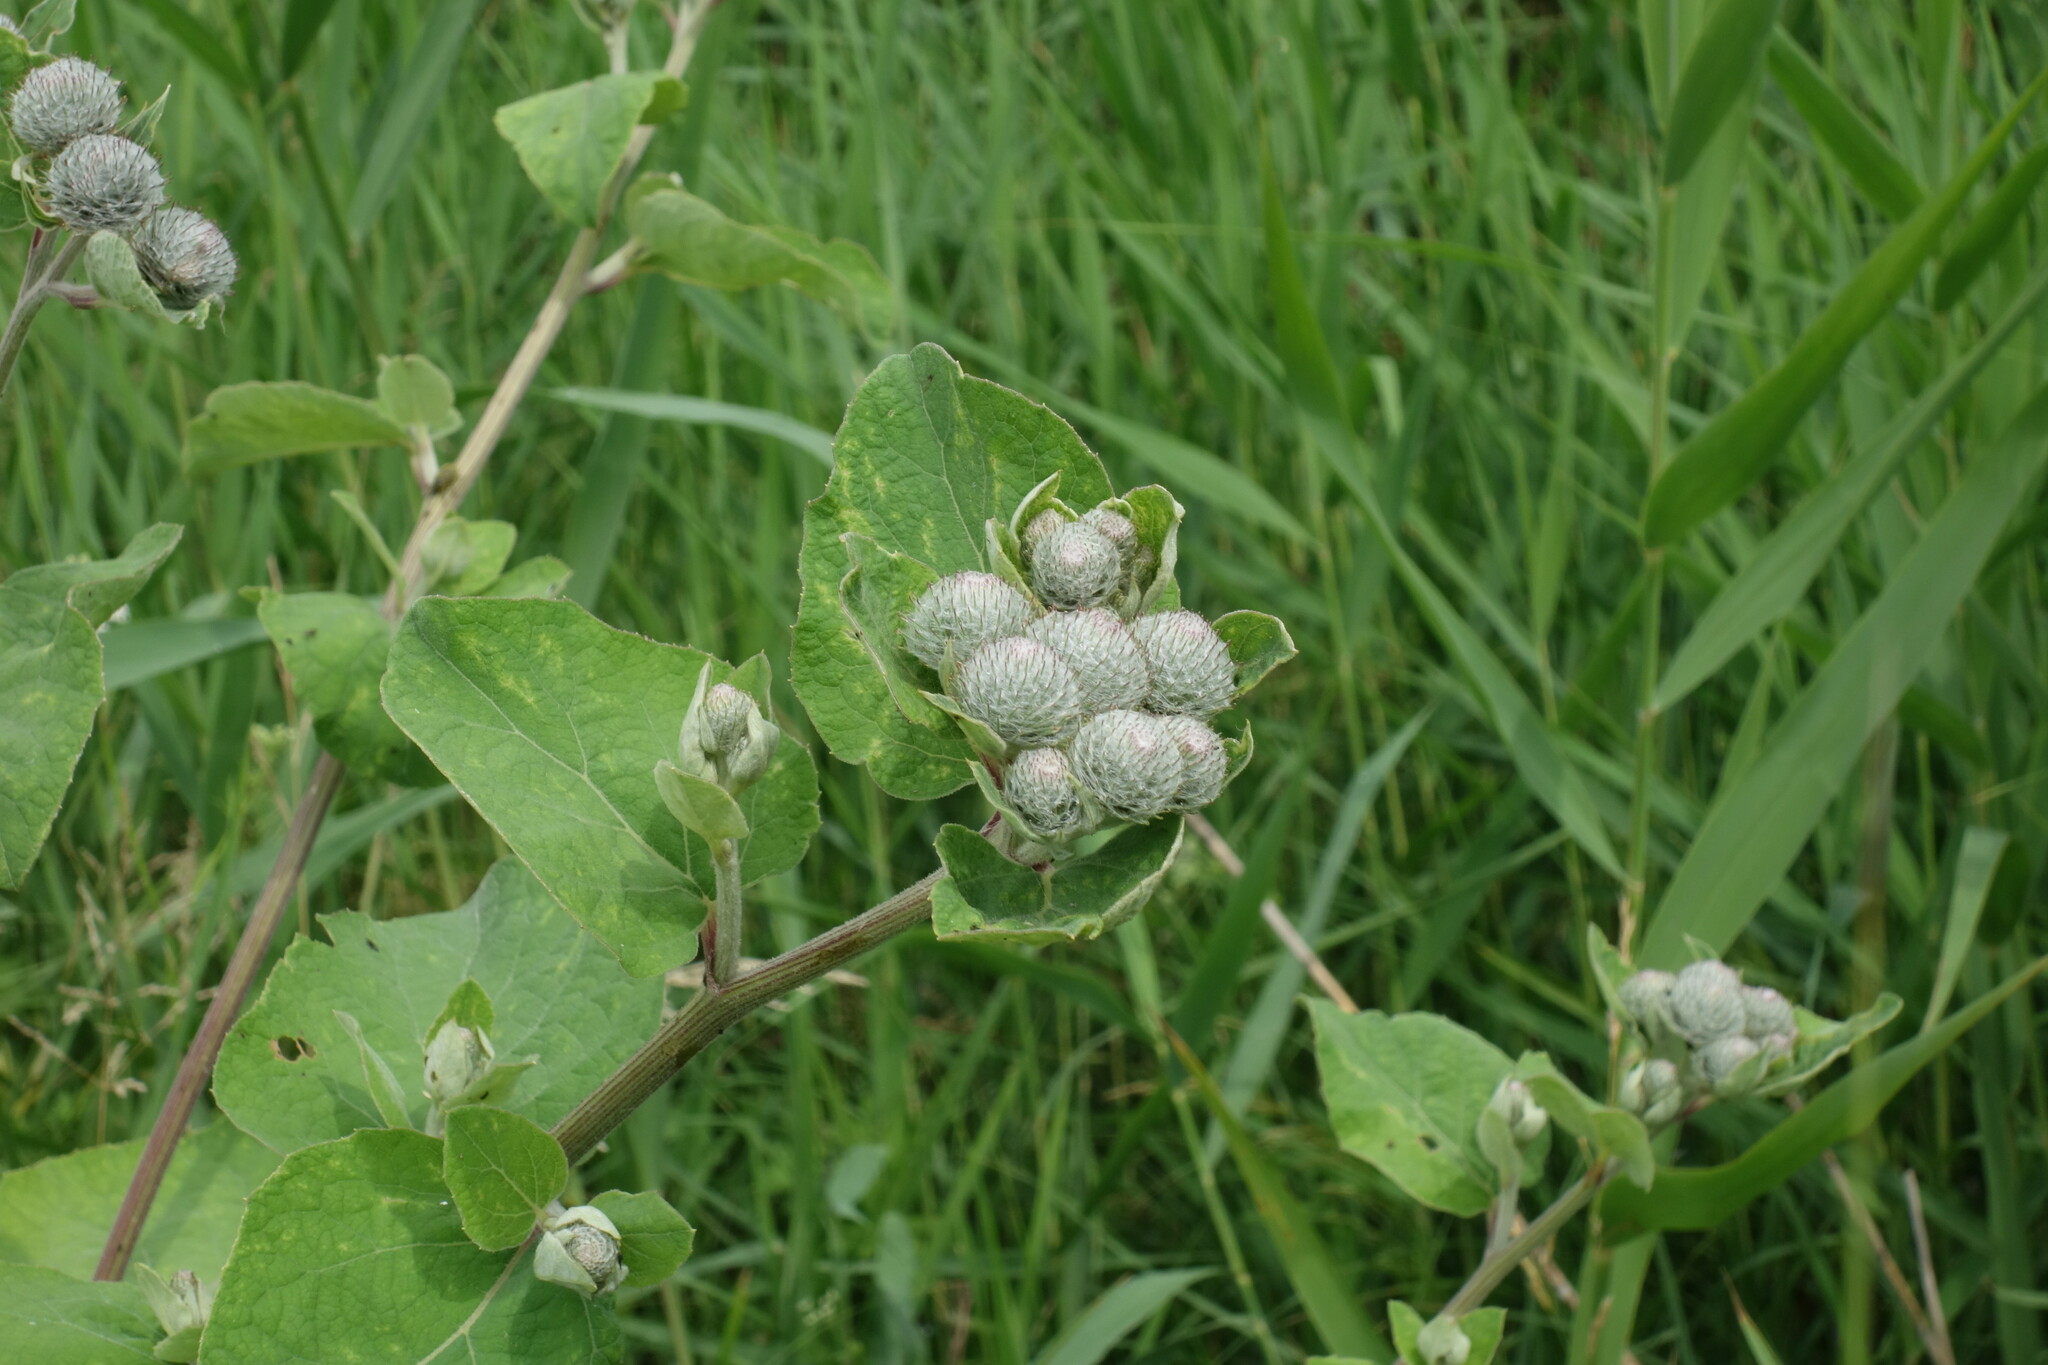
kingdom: Plantae
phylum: Tracheophyta
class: Magnoliopsida
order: Asterales
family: Asteraceae
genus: Arctium
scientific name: Arctium tomentosum
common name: Woolly burdock
